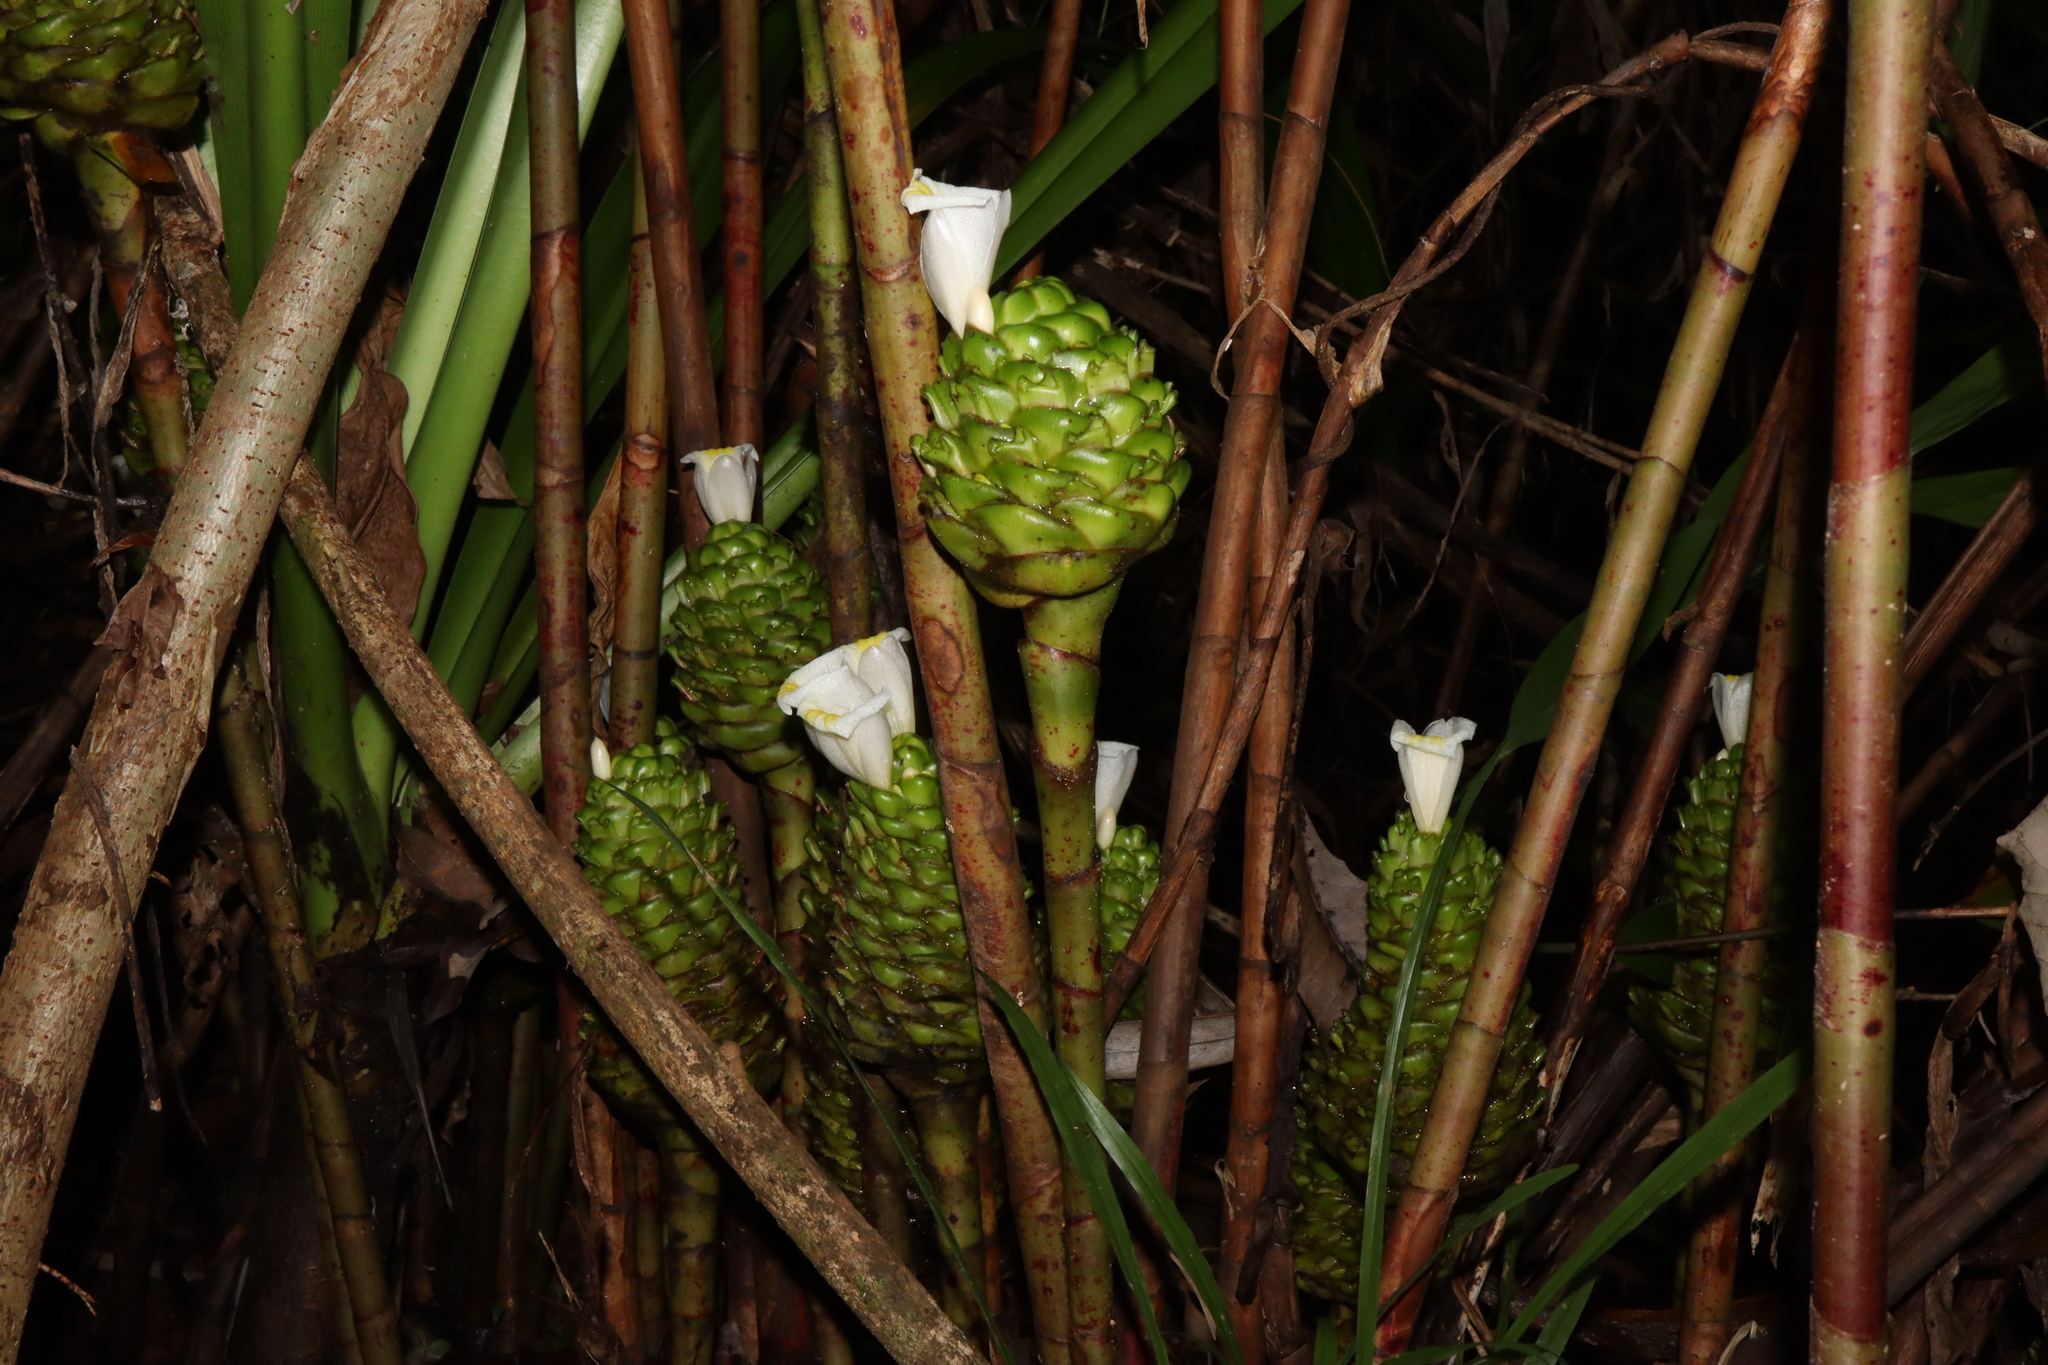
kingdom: Plantae
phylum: Tracheophyta
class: Liliopsida
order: Zingiberales
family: Costaceae
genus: Costus
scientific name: Costus dubius
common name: Costus
